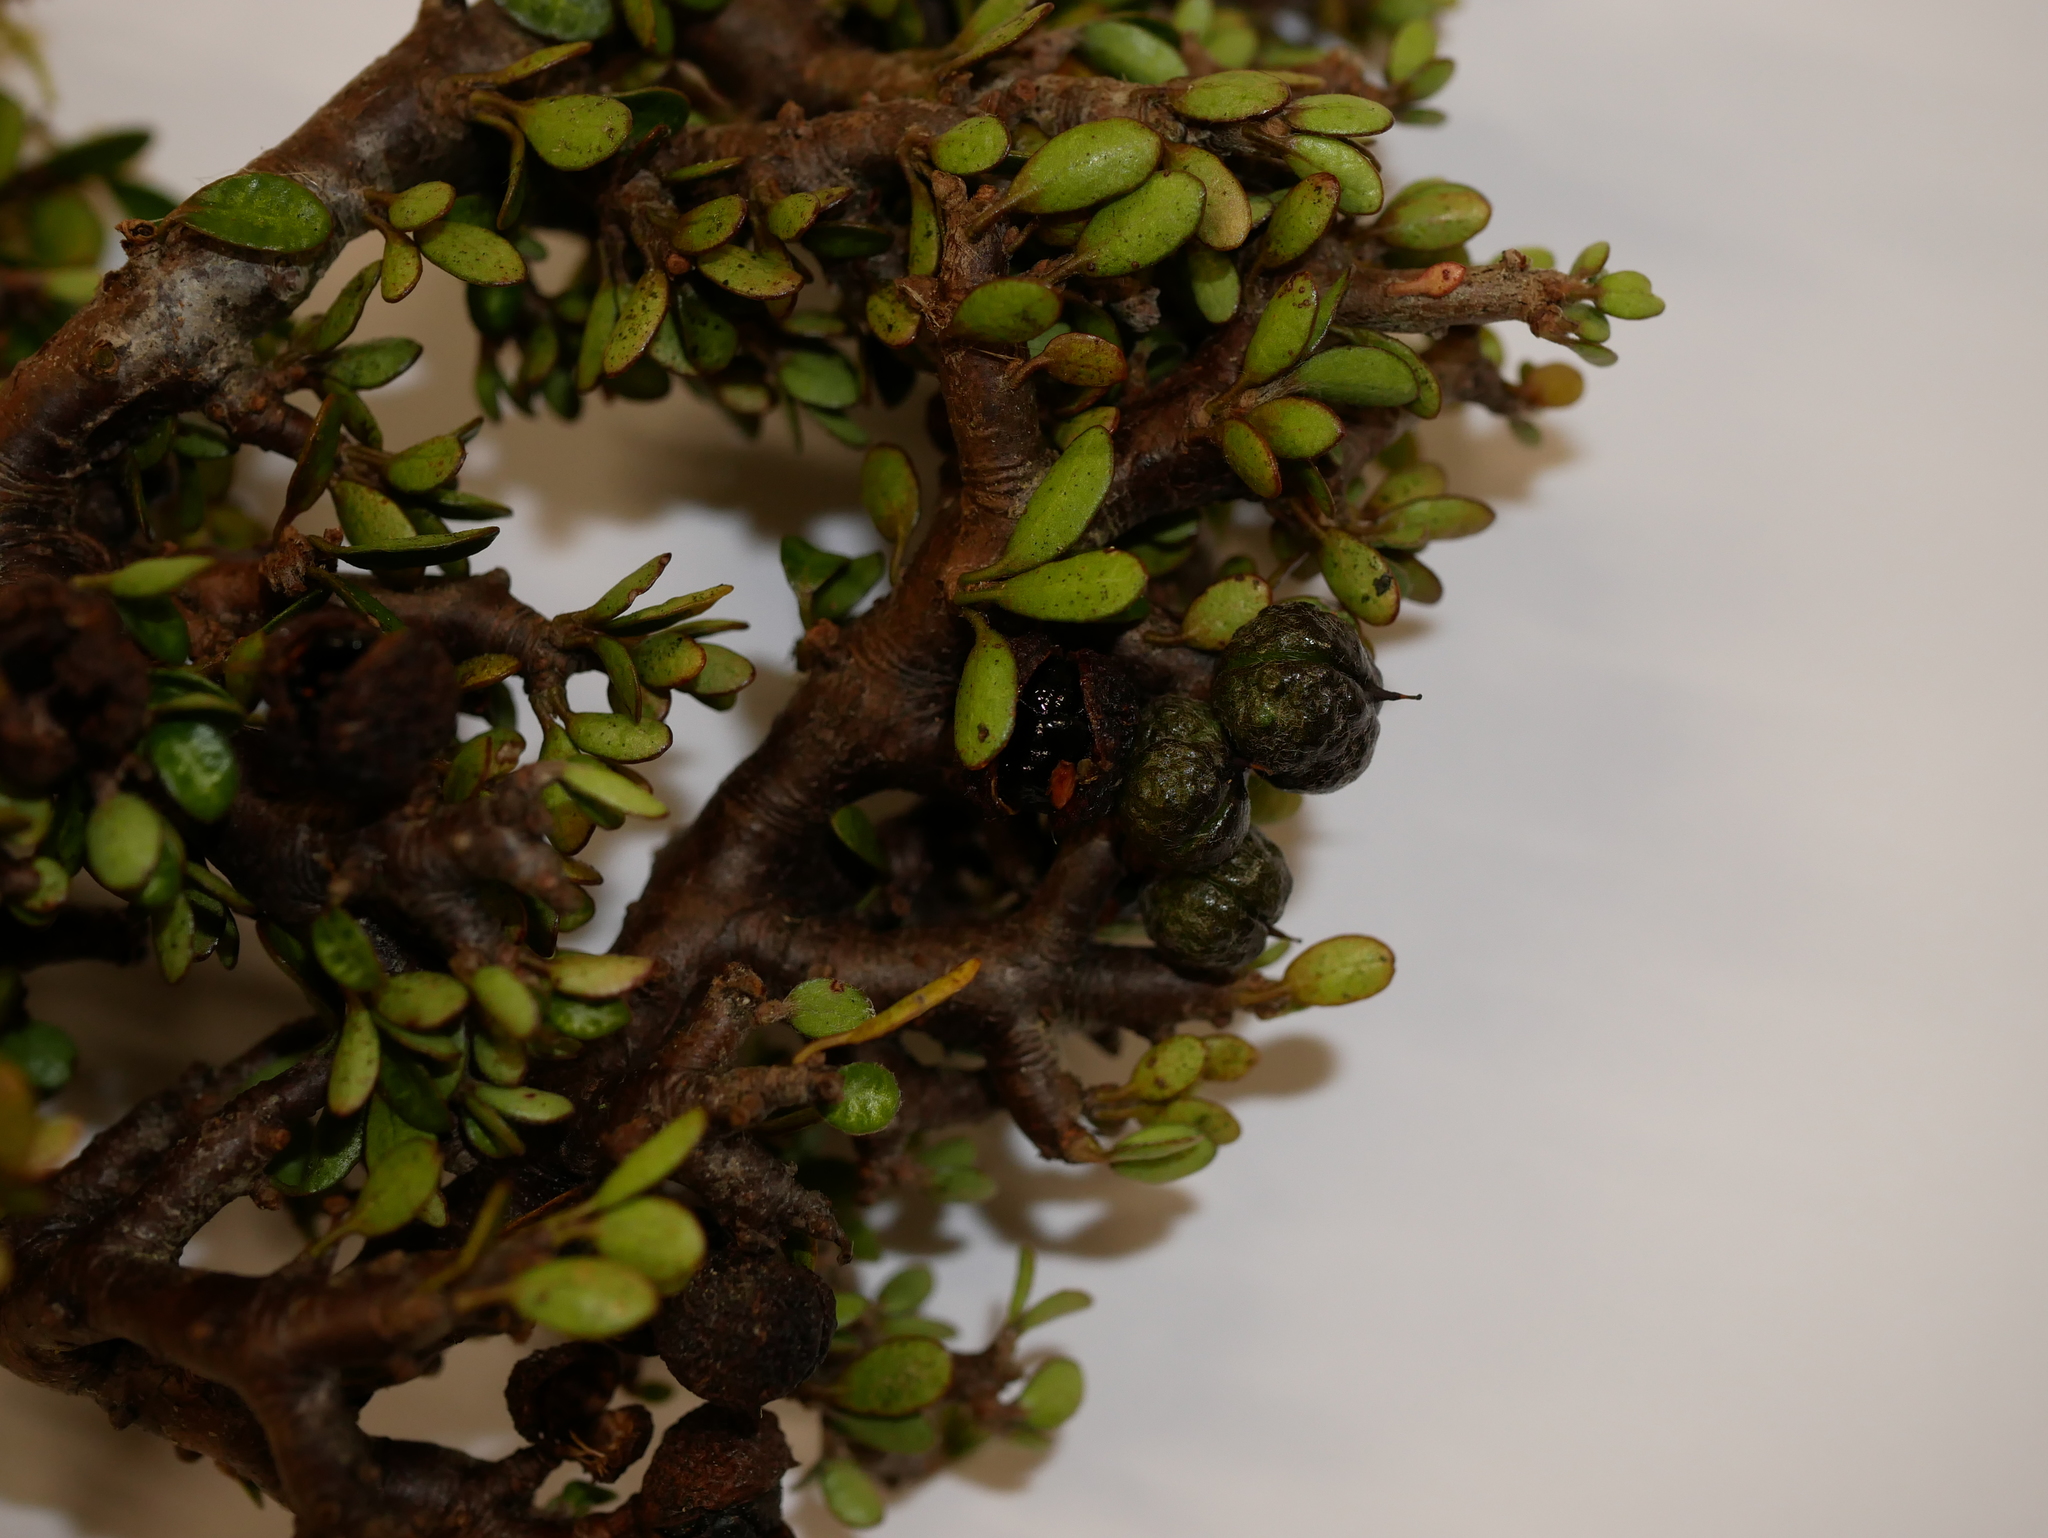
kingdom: Plantae
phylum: Tracheophyta
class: Magnoliopsida
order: Apiales
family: Pittosporaceae
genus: Pittosporum
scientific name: Pittosporum rigidum
